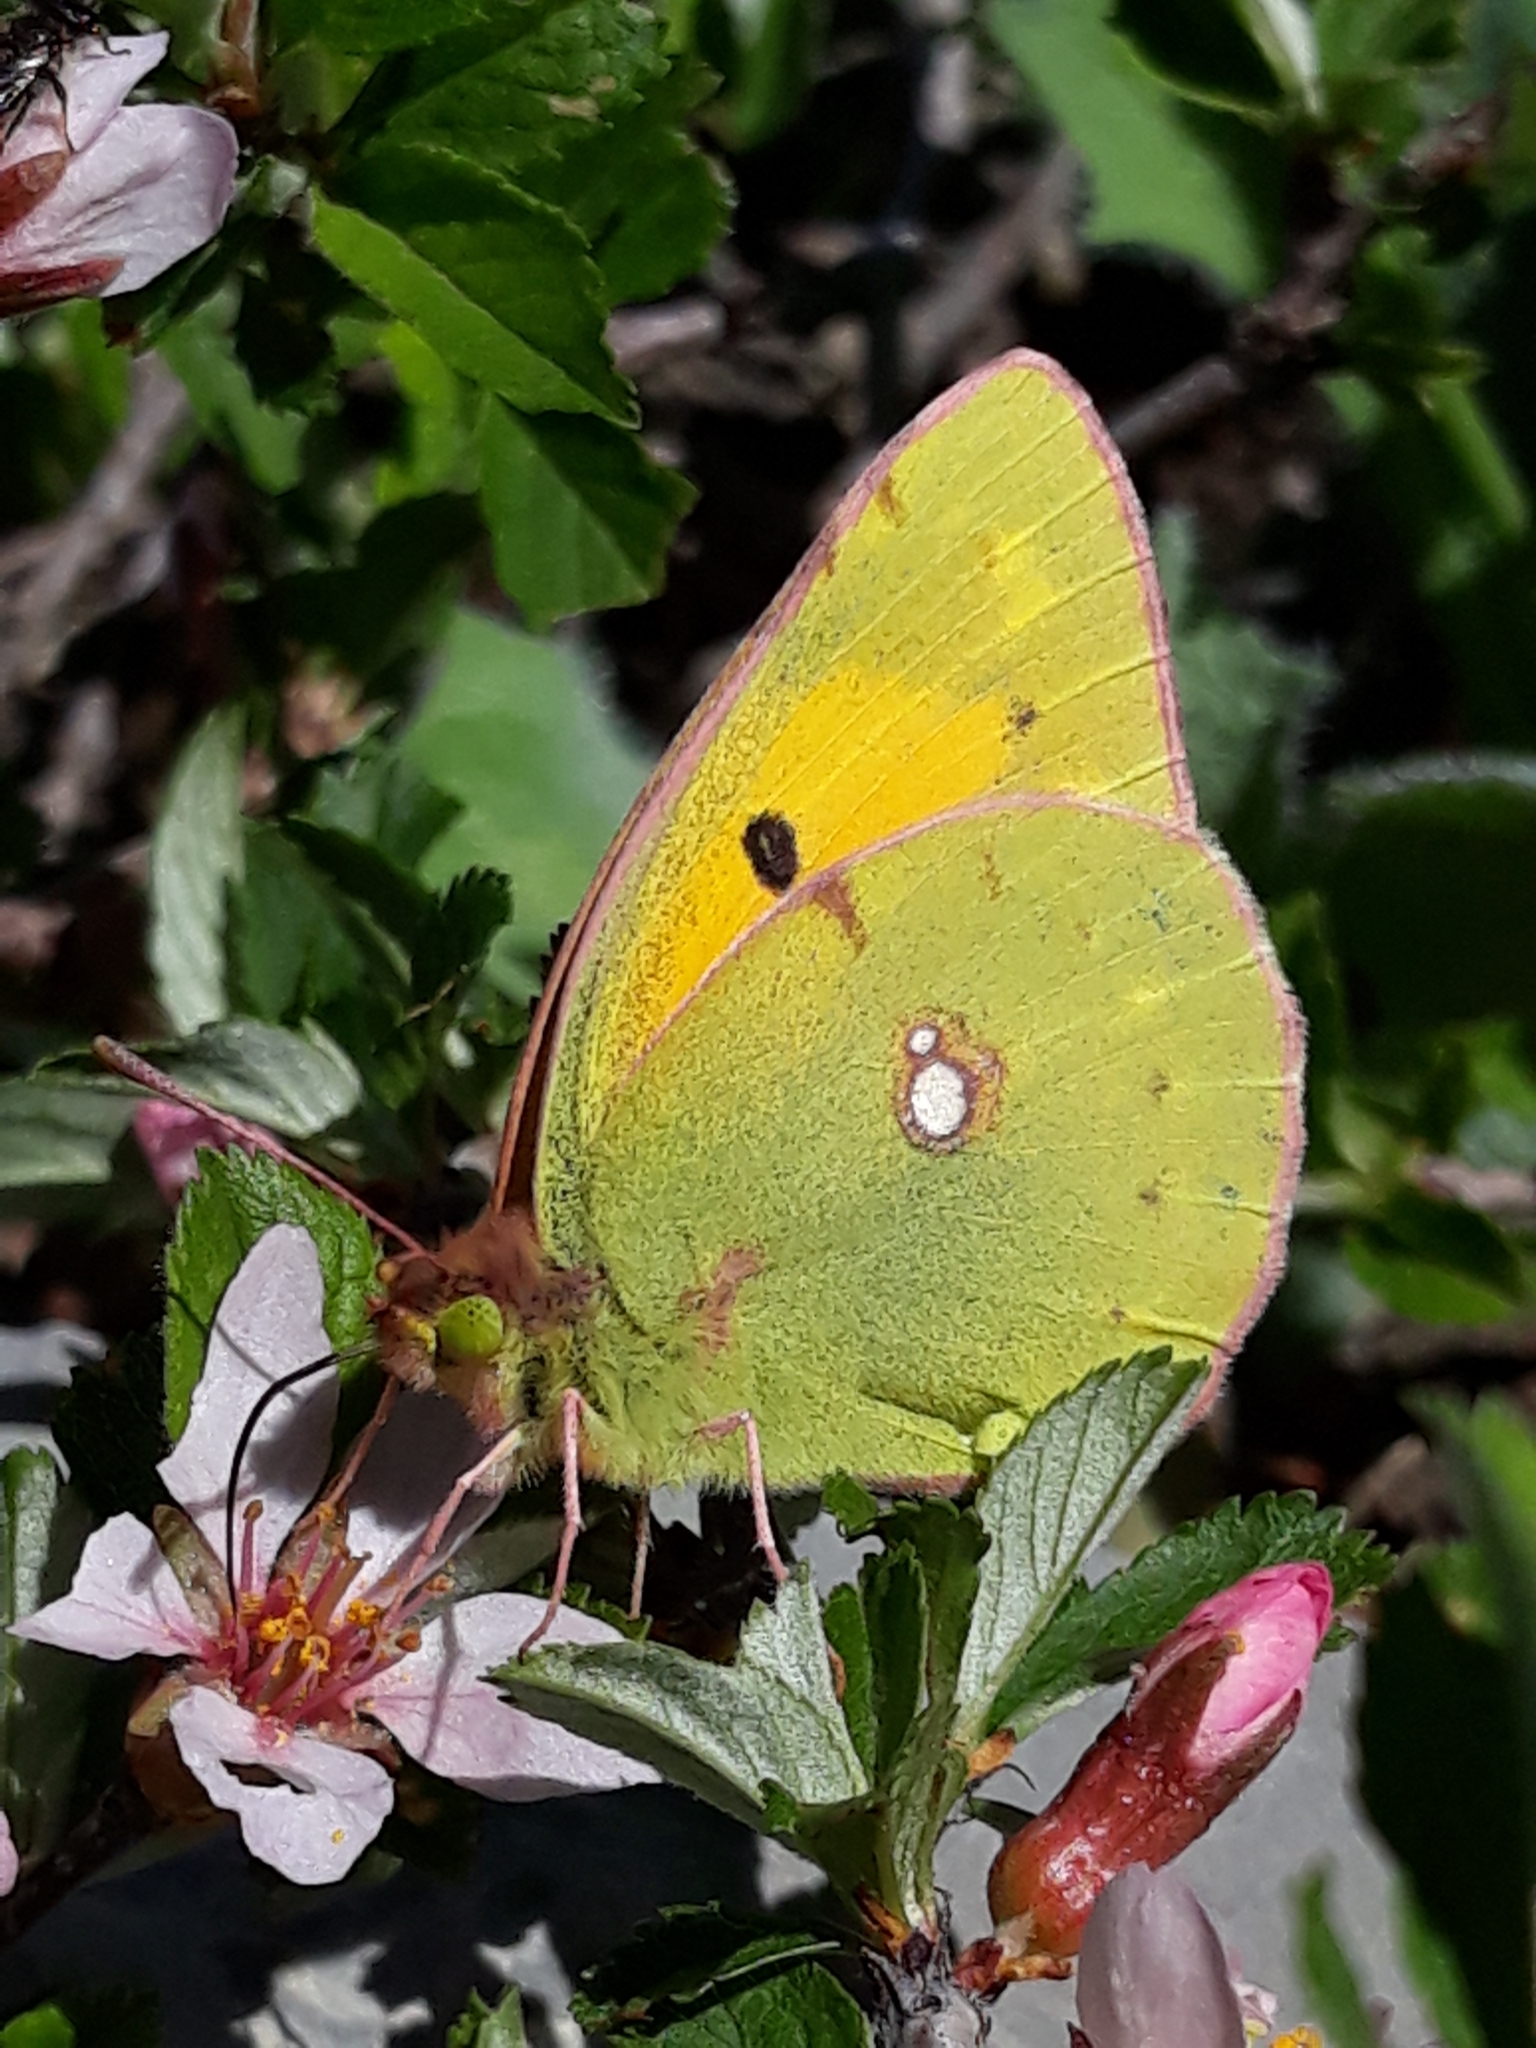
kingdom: Animalia
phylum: Arthropoda
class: Insecta
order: Lepidoptera
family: Pieridae
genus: Colias
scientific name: Colias croceus
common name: Clouded yellow
